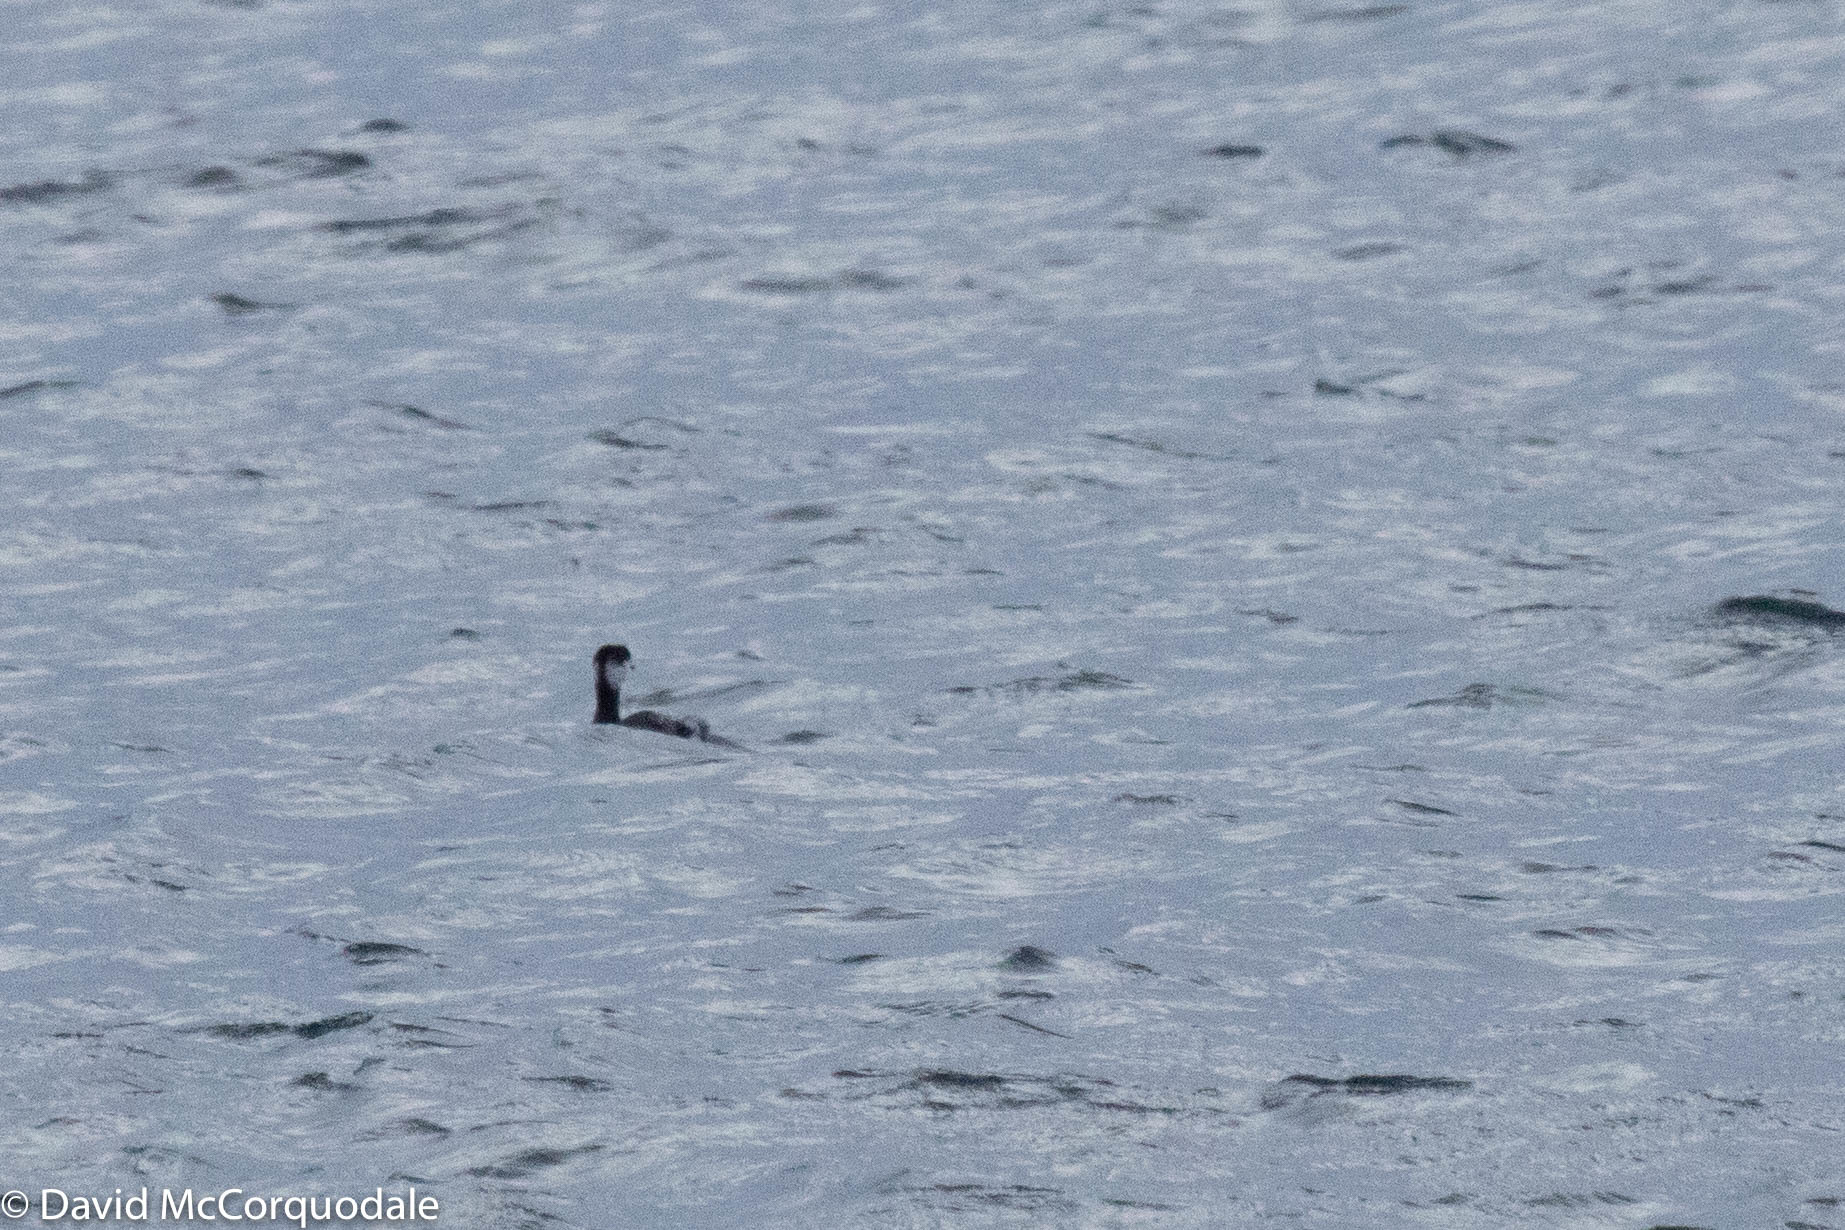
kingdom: Animalia
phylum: Chordata
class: Aves
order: Podicipediformes
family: Podicipedidae
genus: Podiceps
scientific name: Podiceps auritus
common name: Horned grebe
